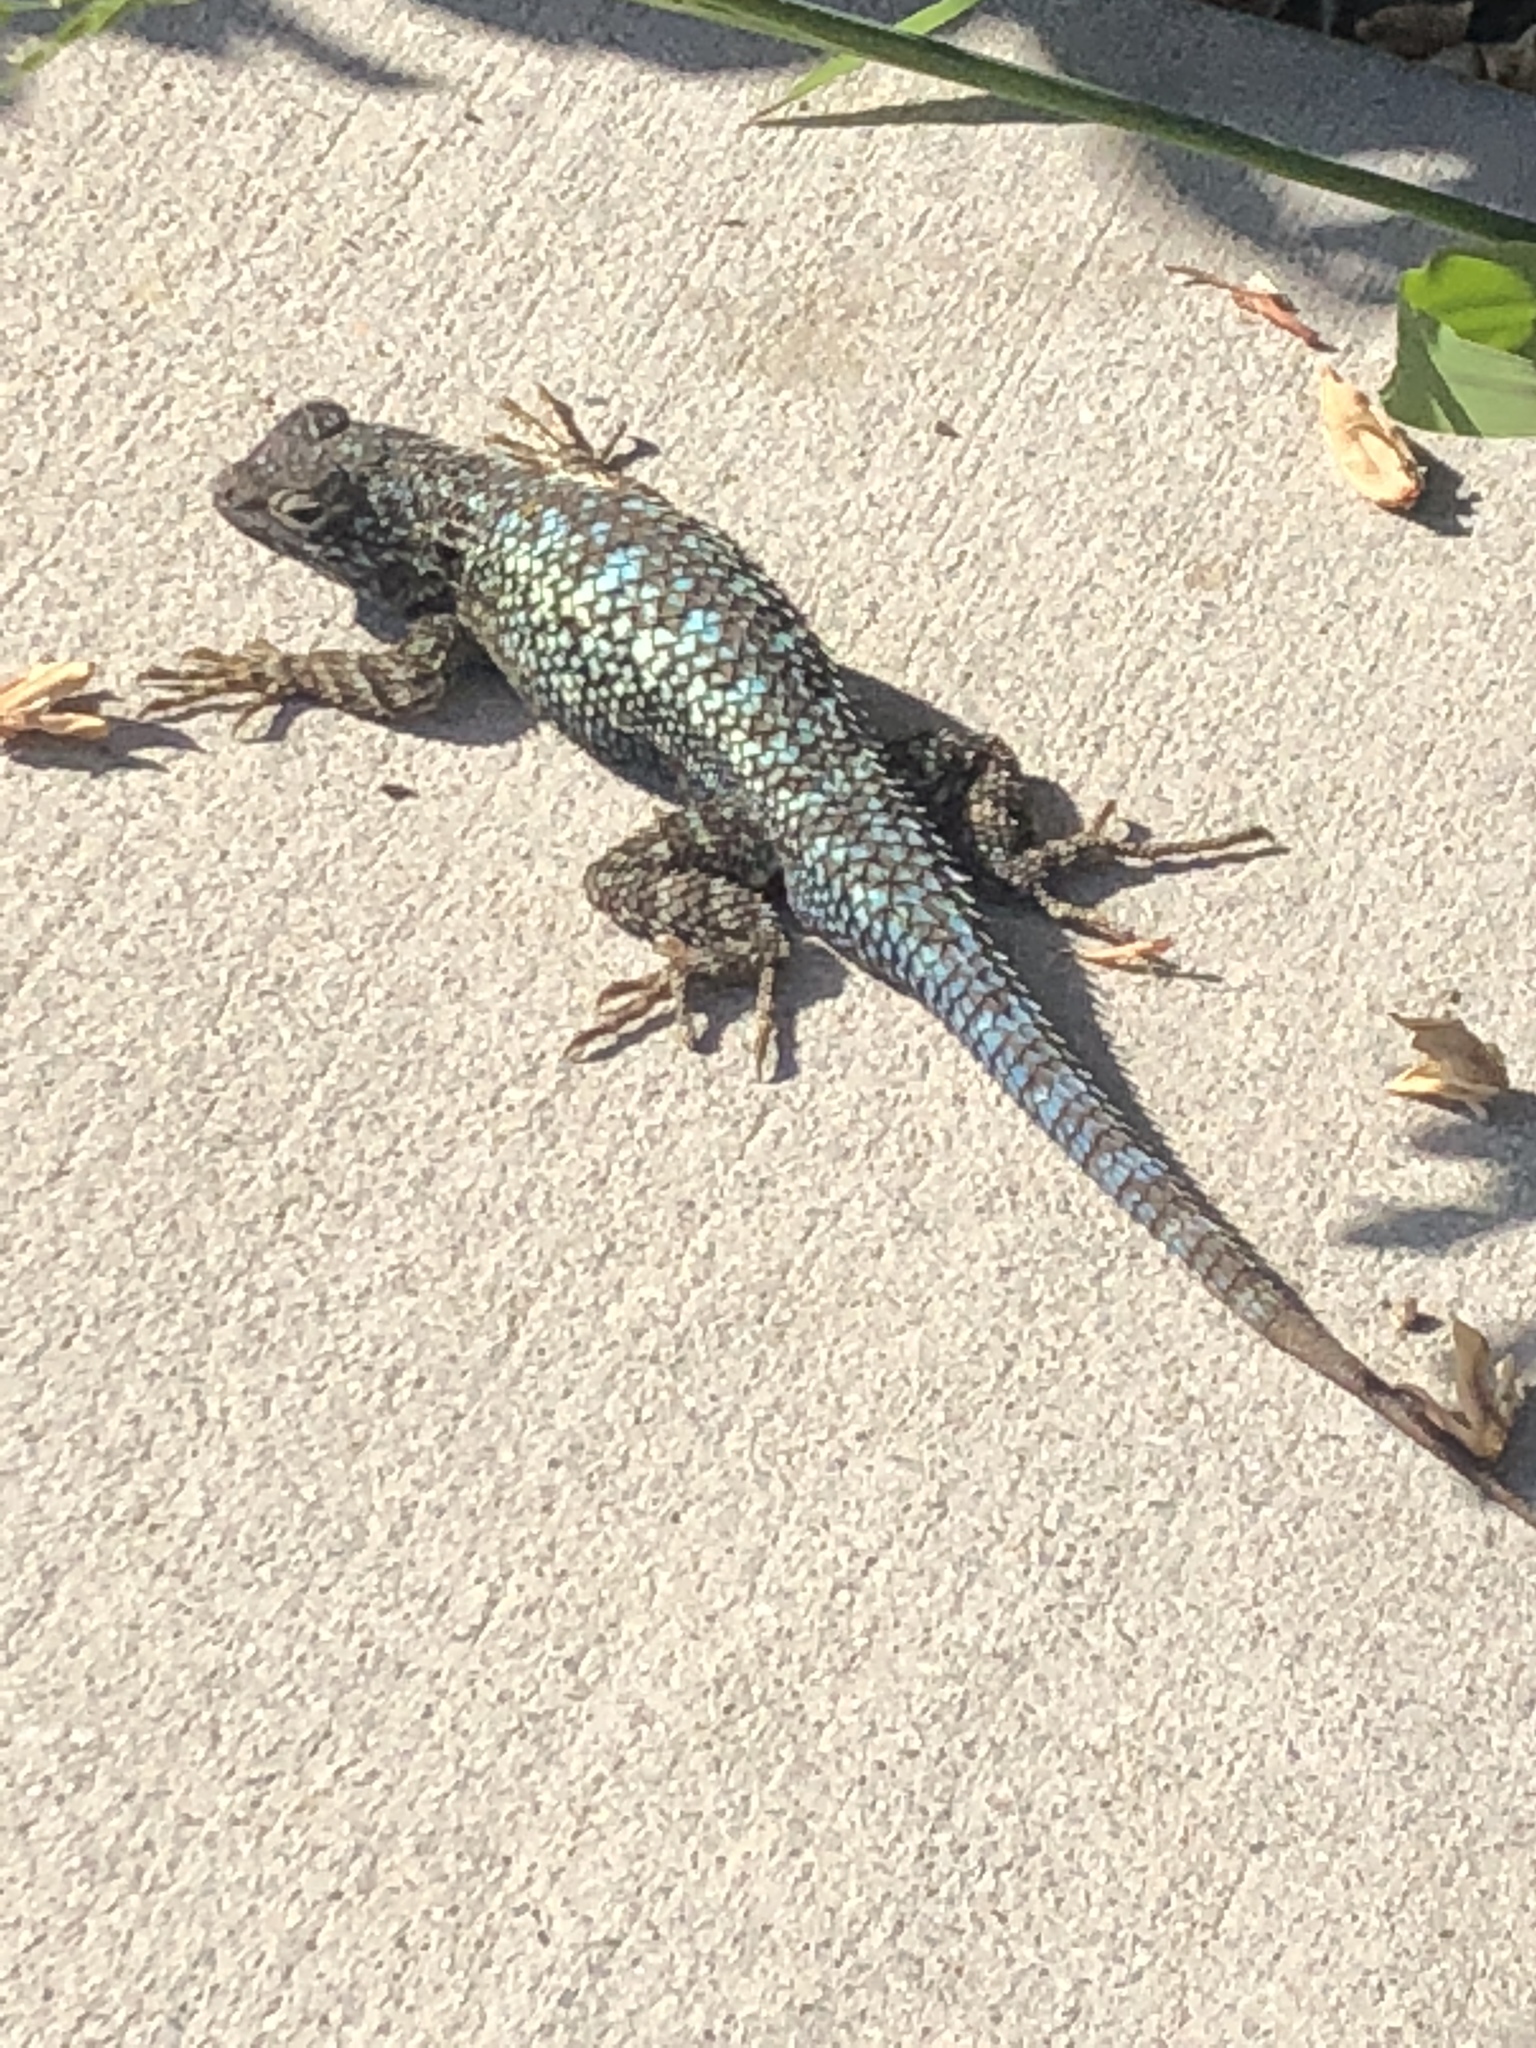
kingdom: Animalia
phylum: Chordata
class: Squamata
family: Phrynosomatidae
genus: Sceloporus
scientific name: Sceloporus occidentalis
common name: Western fence lizard
